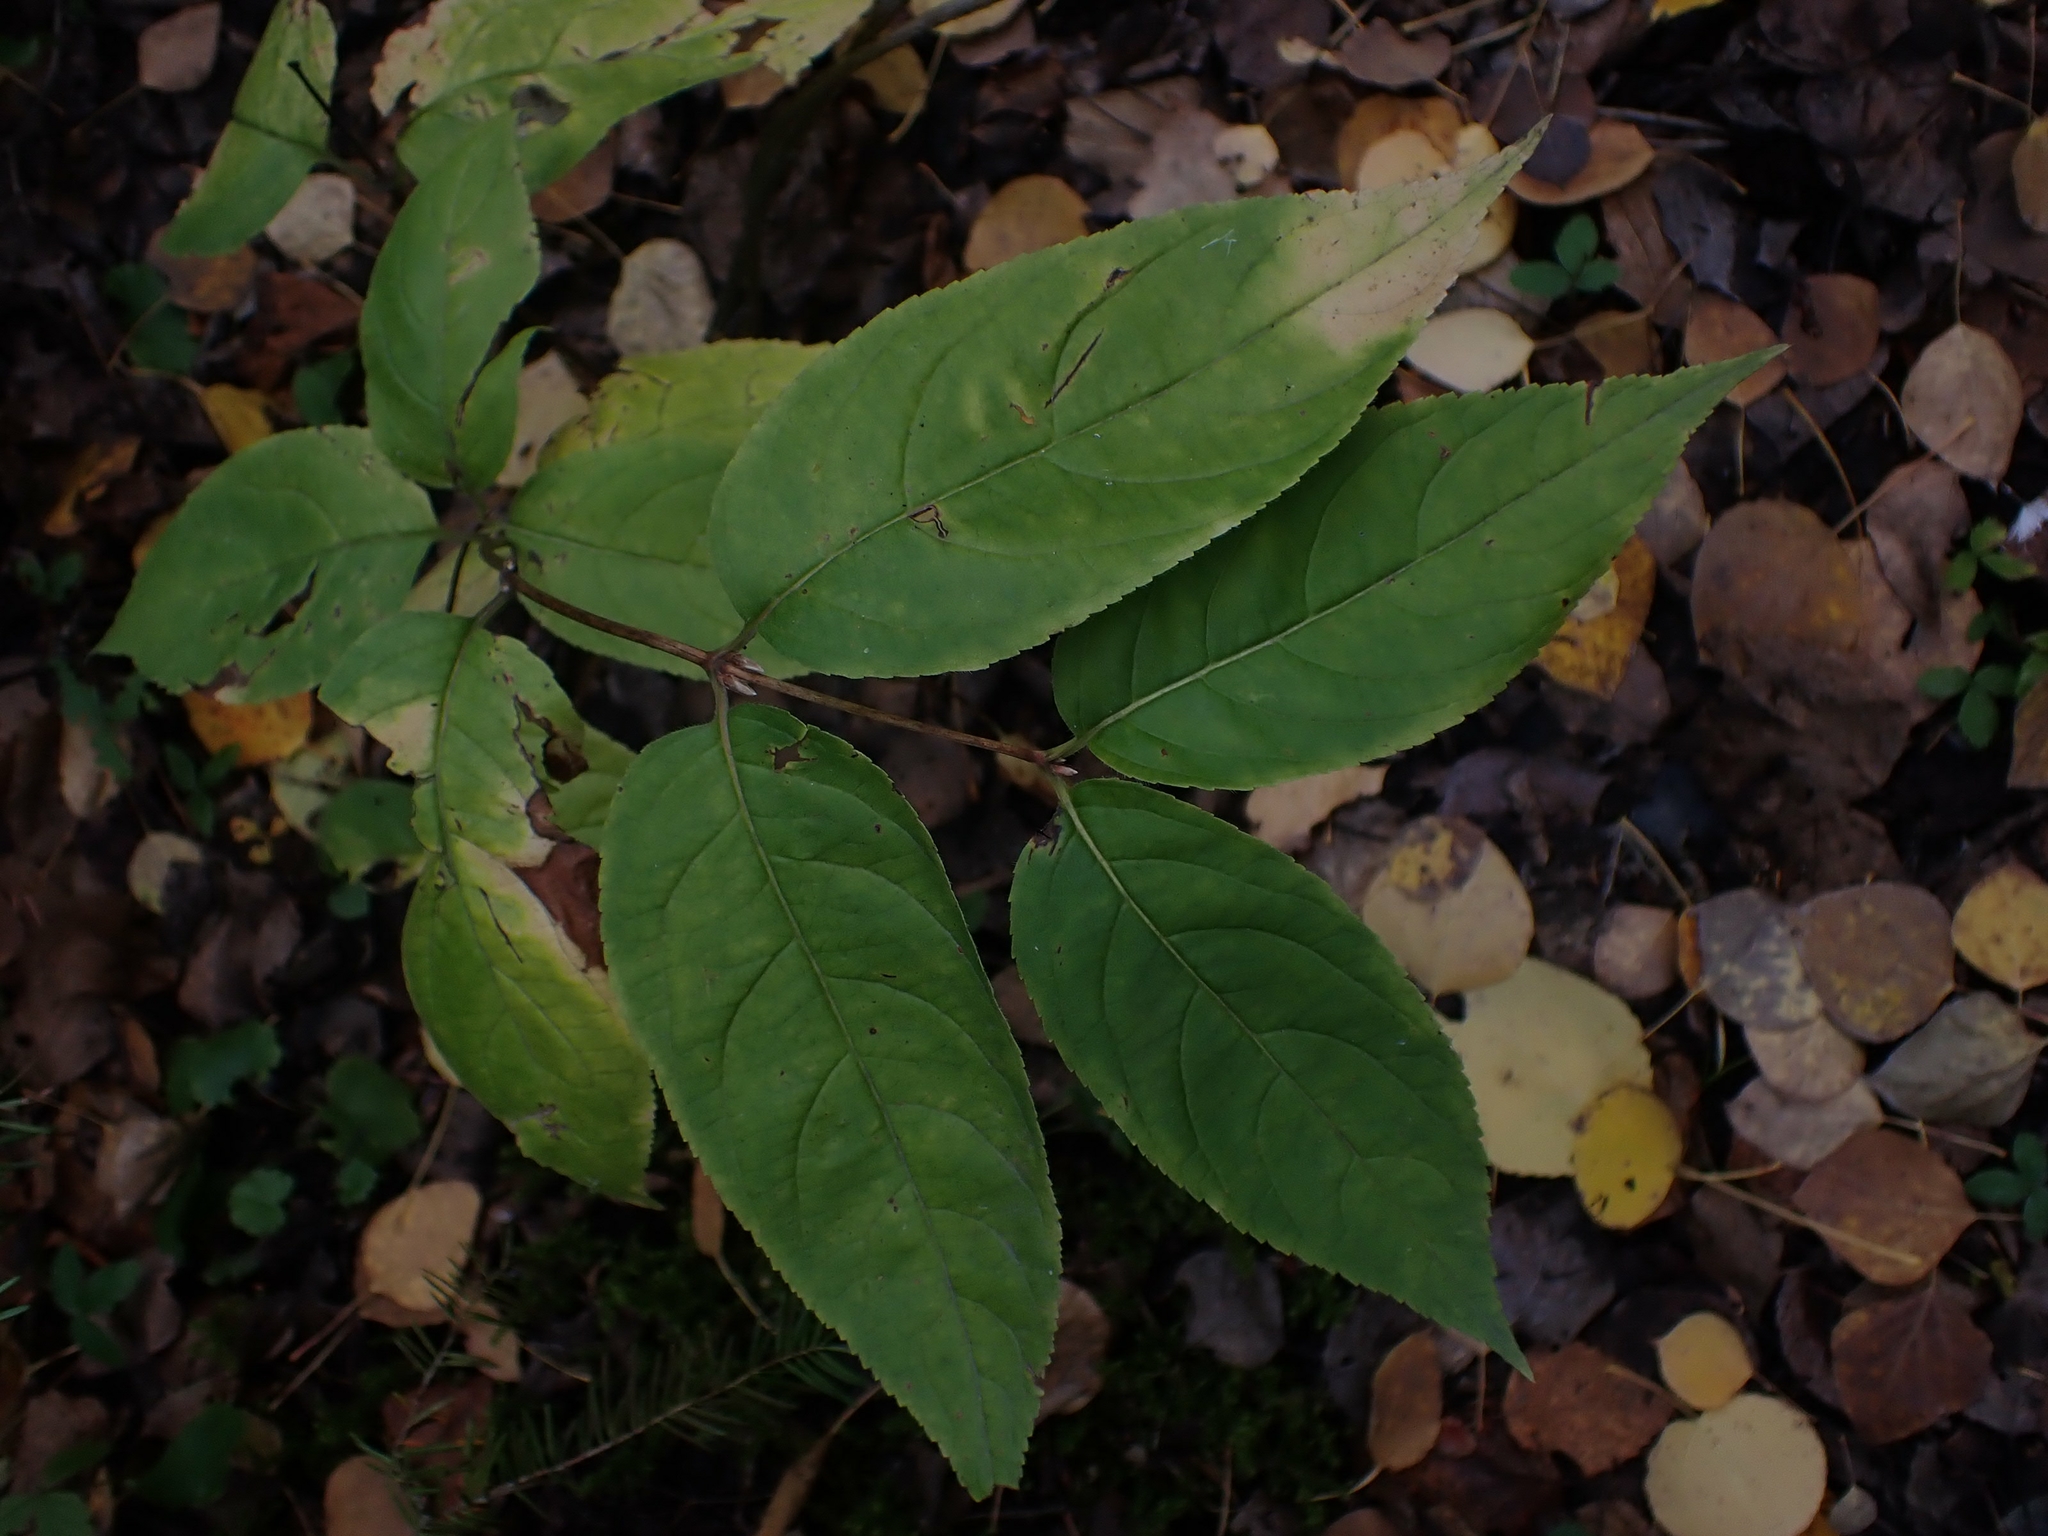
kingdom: Plantae
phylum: Tracheophyta
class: Magnoliopsida
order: Dipsacales
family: Caprifoliaceae
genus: Diervilla
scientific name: Diervilla lonicera
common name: Bush-honeysuckle
